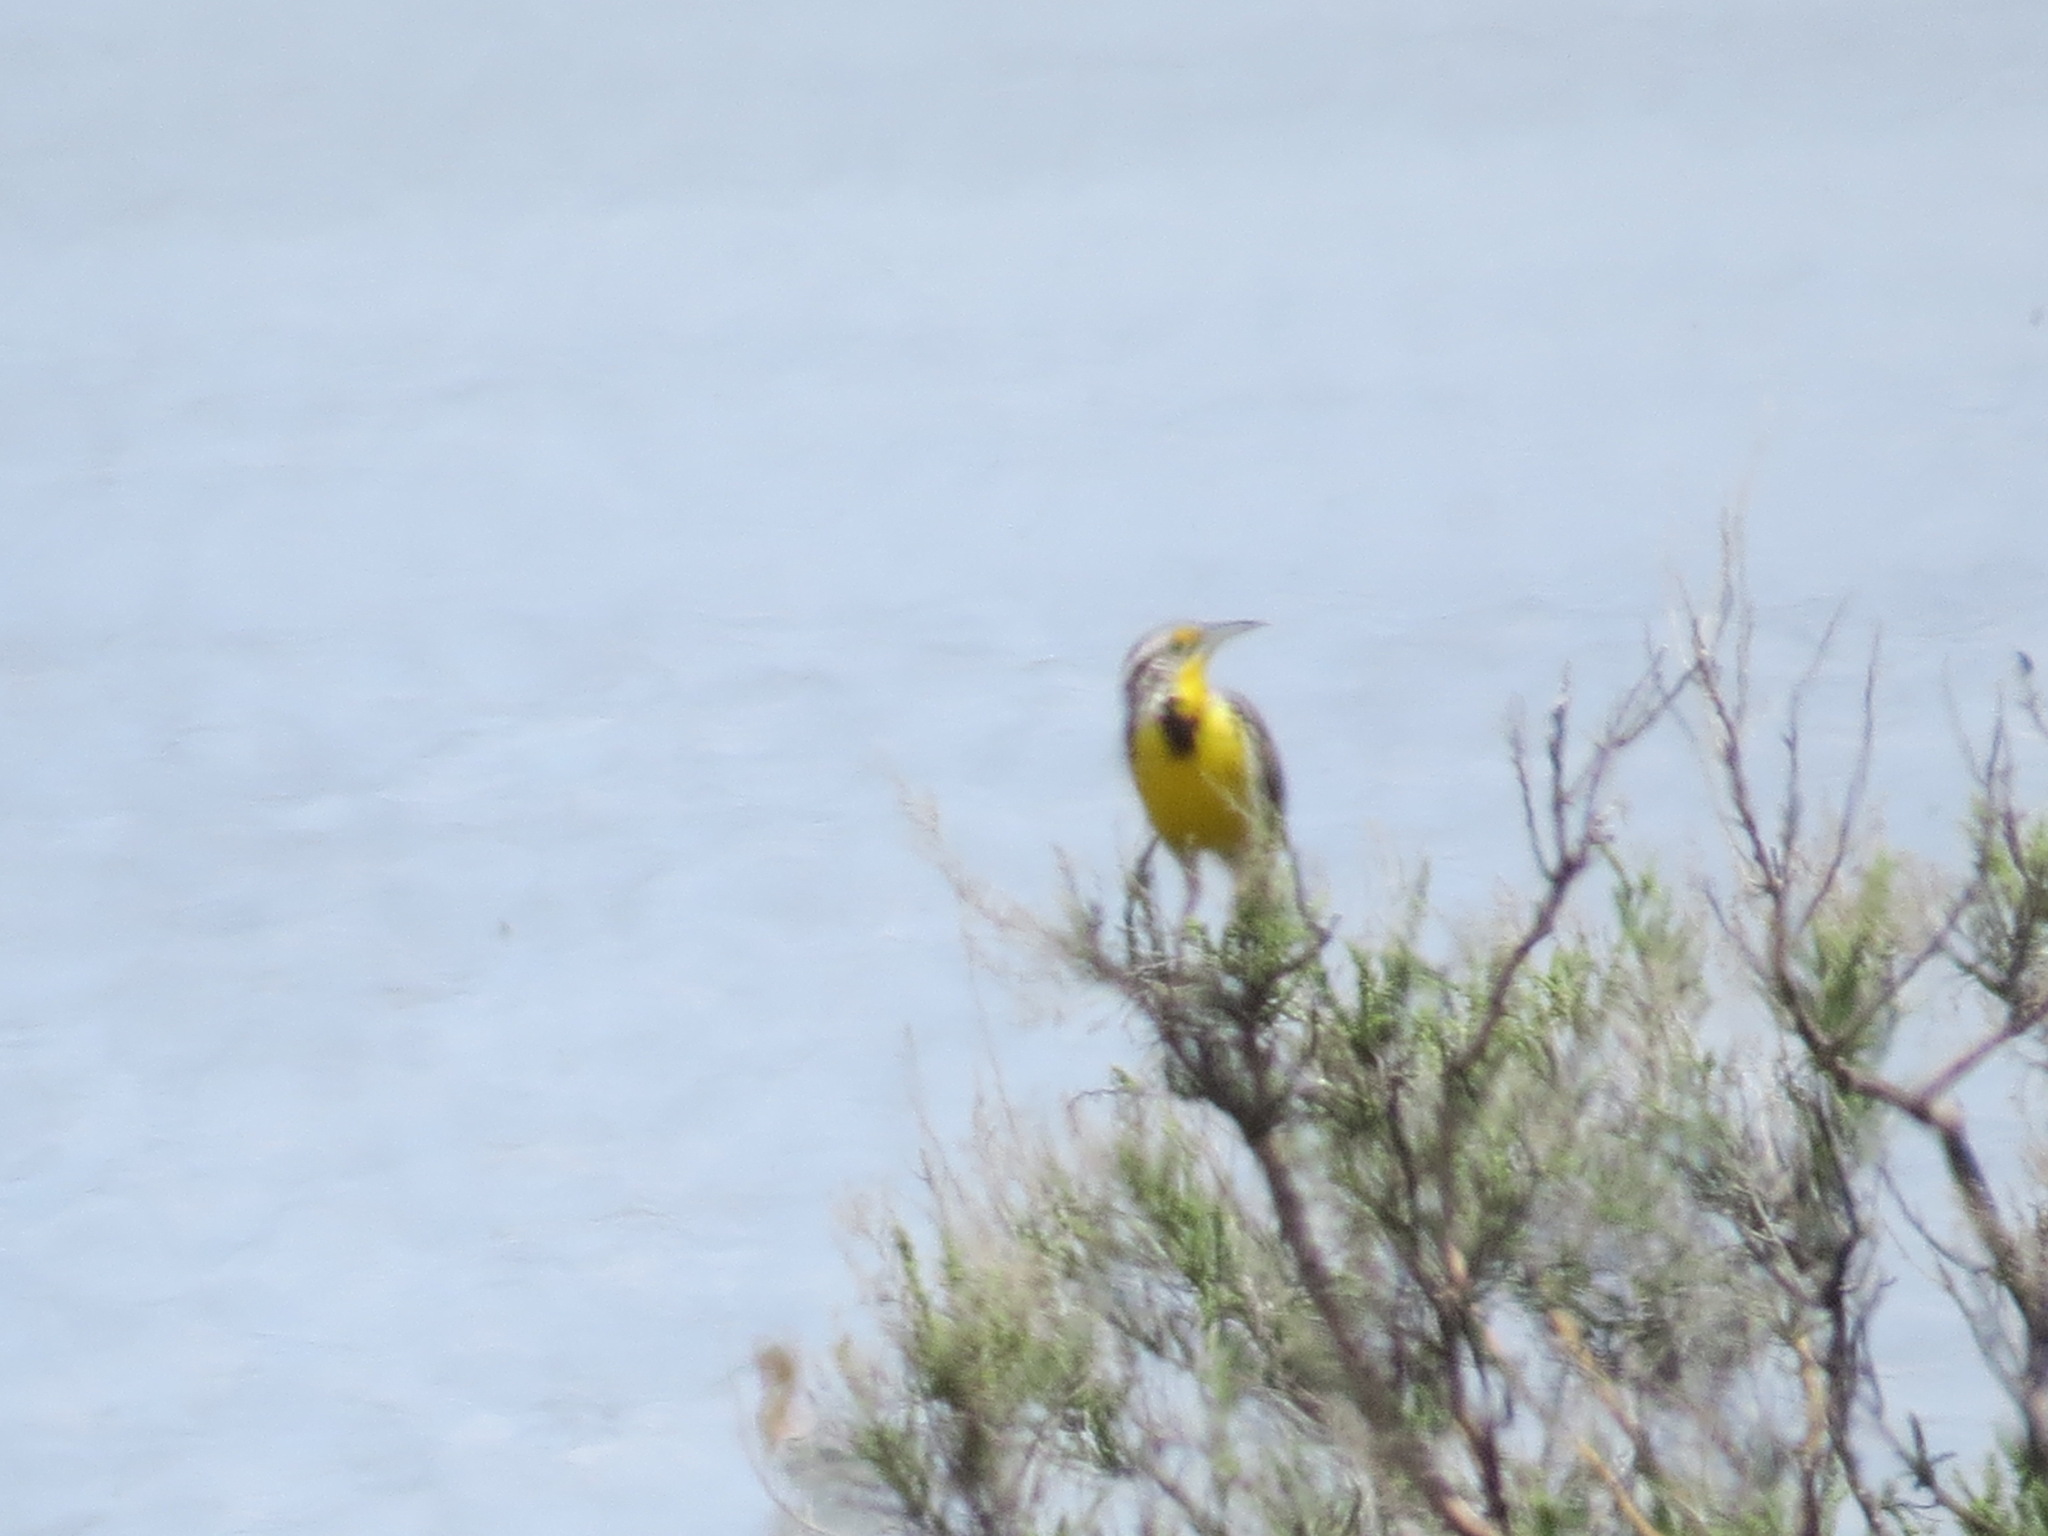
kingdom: Animalia
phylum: Chordata
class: Aves
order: Passeriformes
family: Icteridae
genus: Sturnella
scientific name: Sturnella neglecta
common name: Western meadowlark
